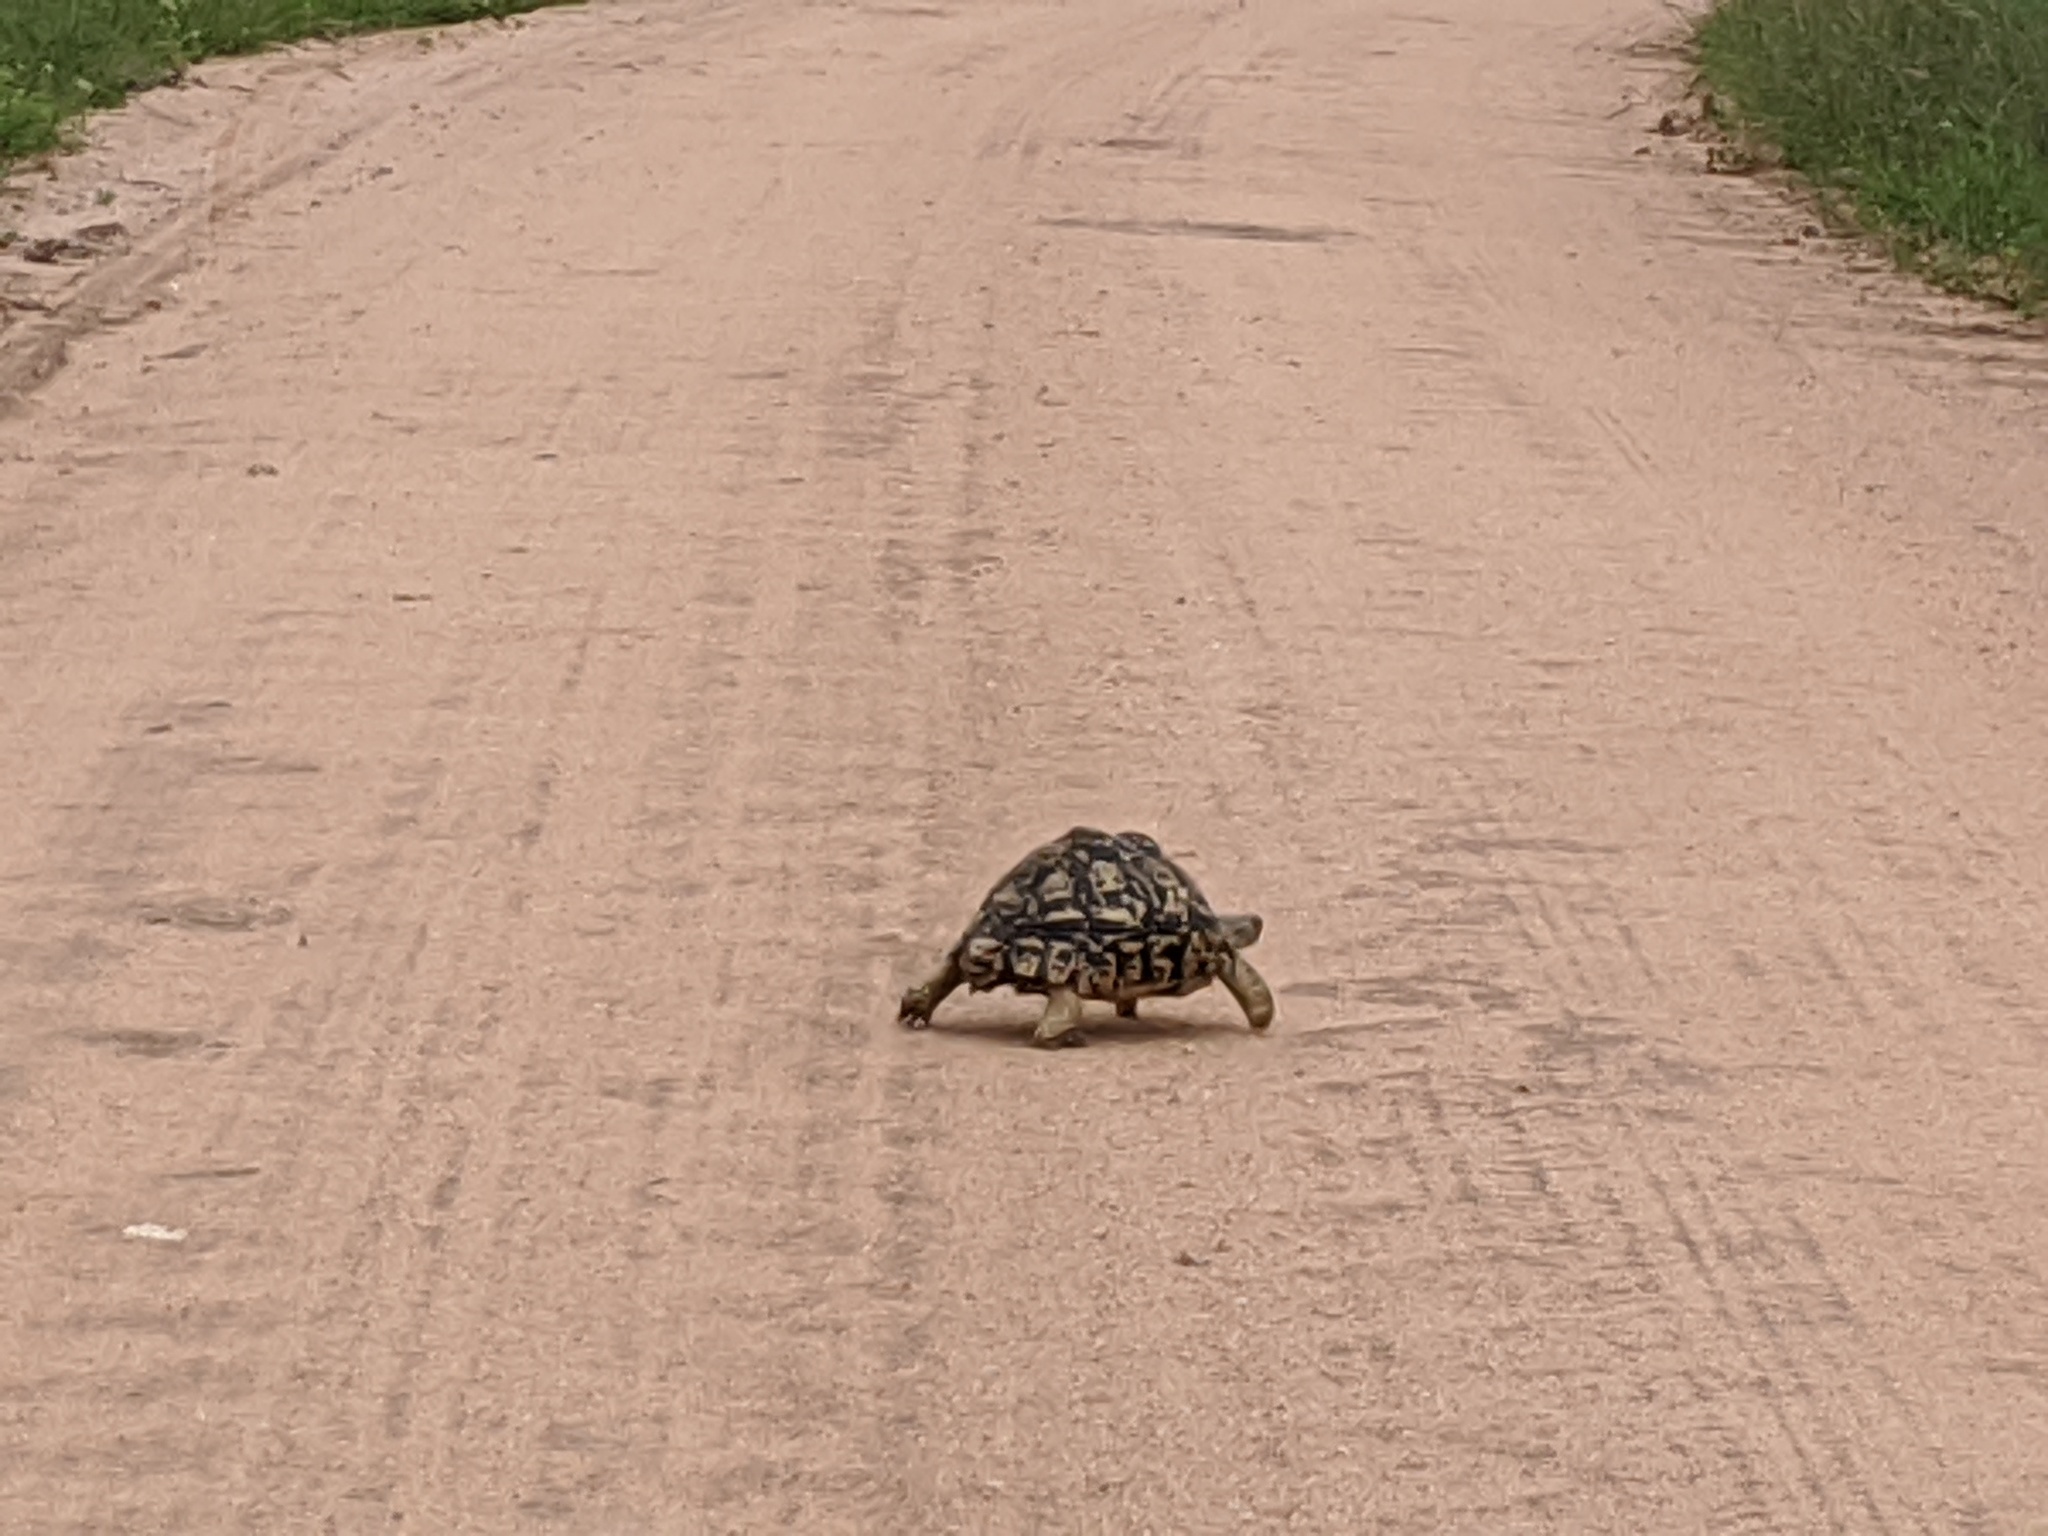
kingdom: Animalia
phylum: Chordata
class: Testudines
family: Testudinidae
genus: Stigmochelys
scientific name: Stigmochelys pardalis
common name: Leopard tortoise
